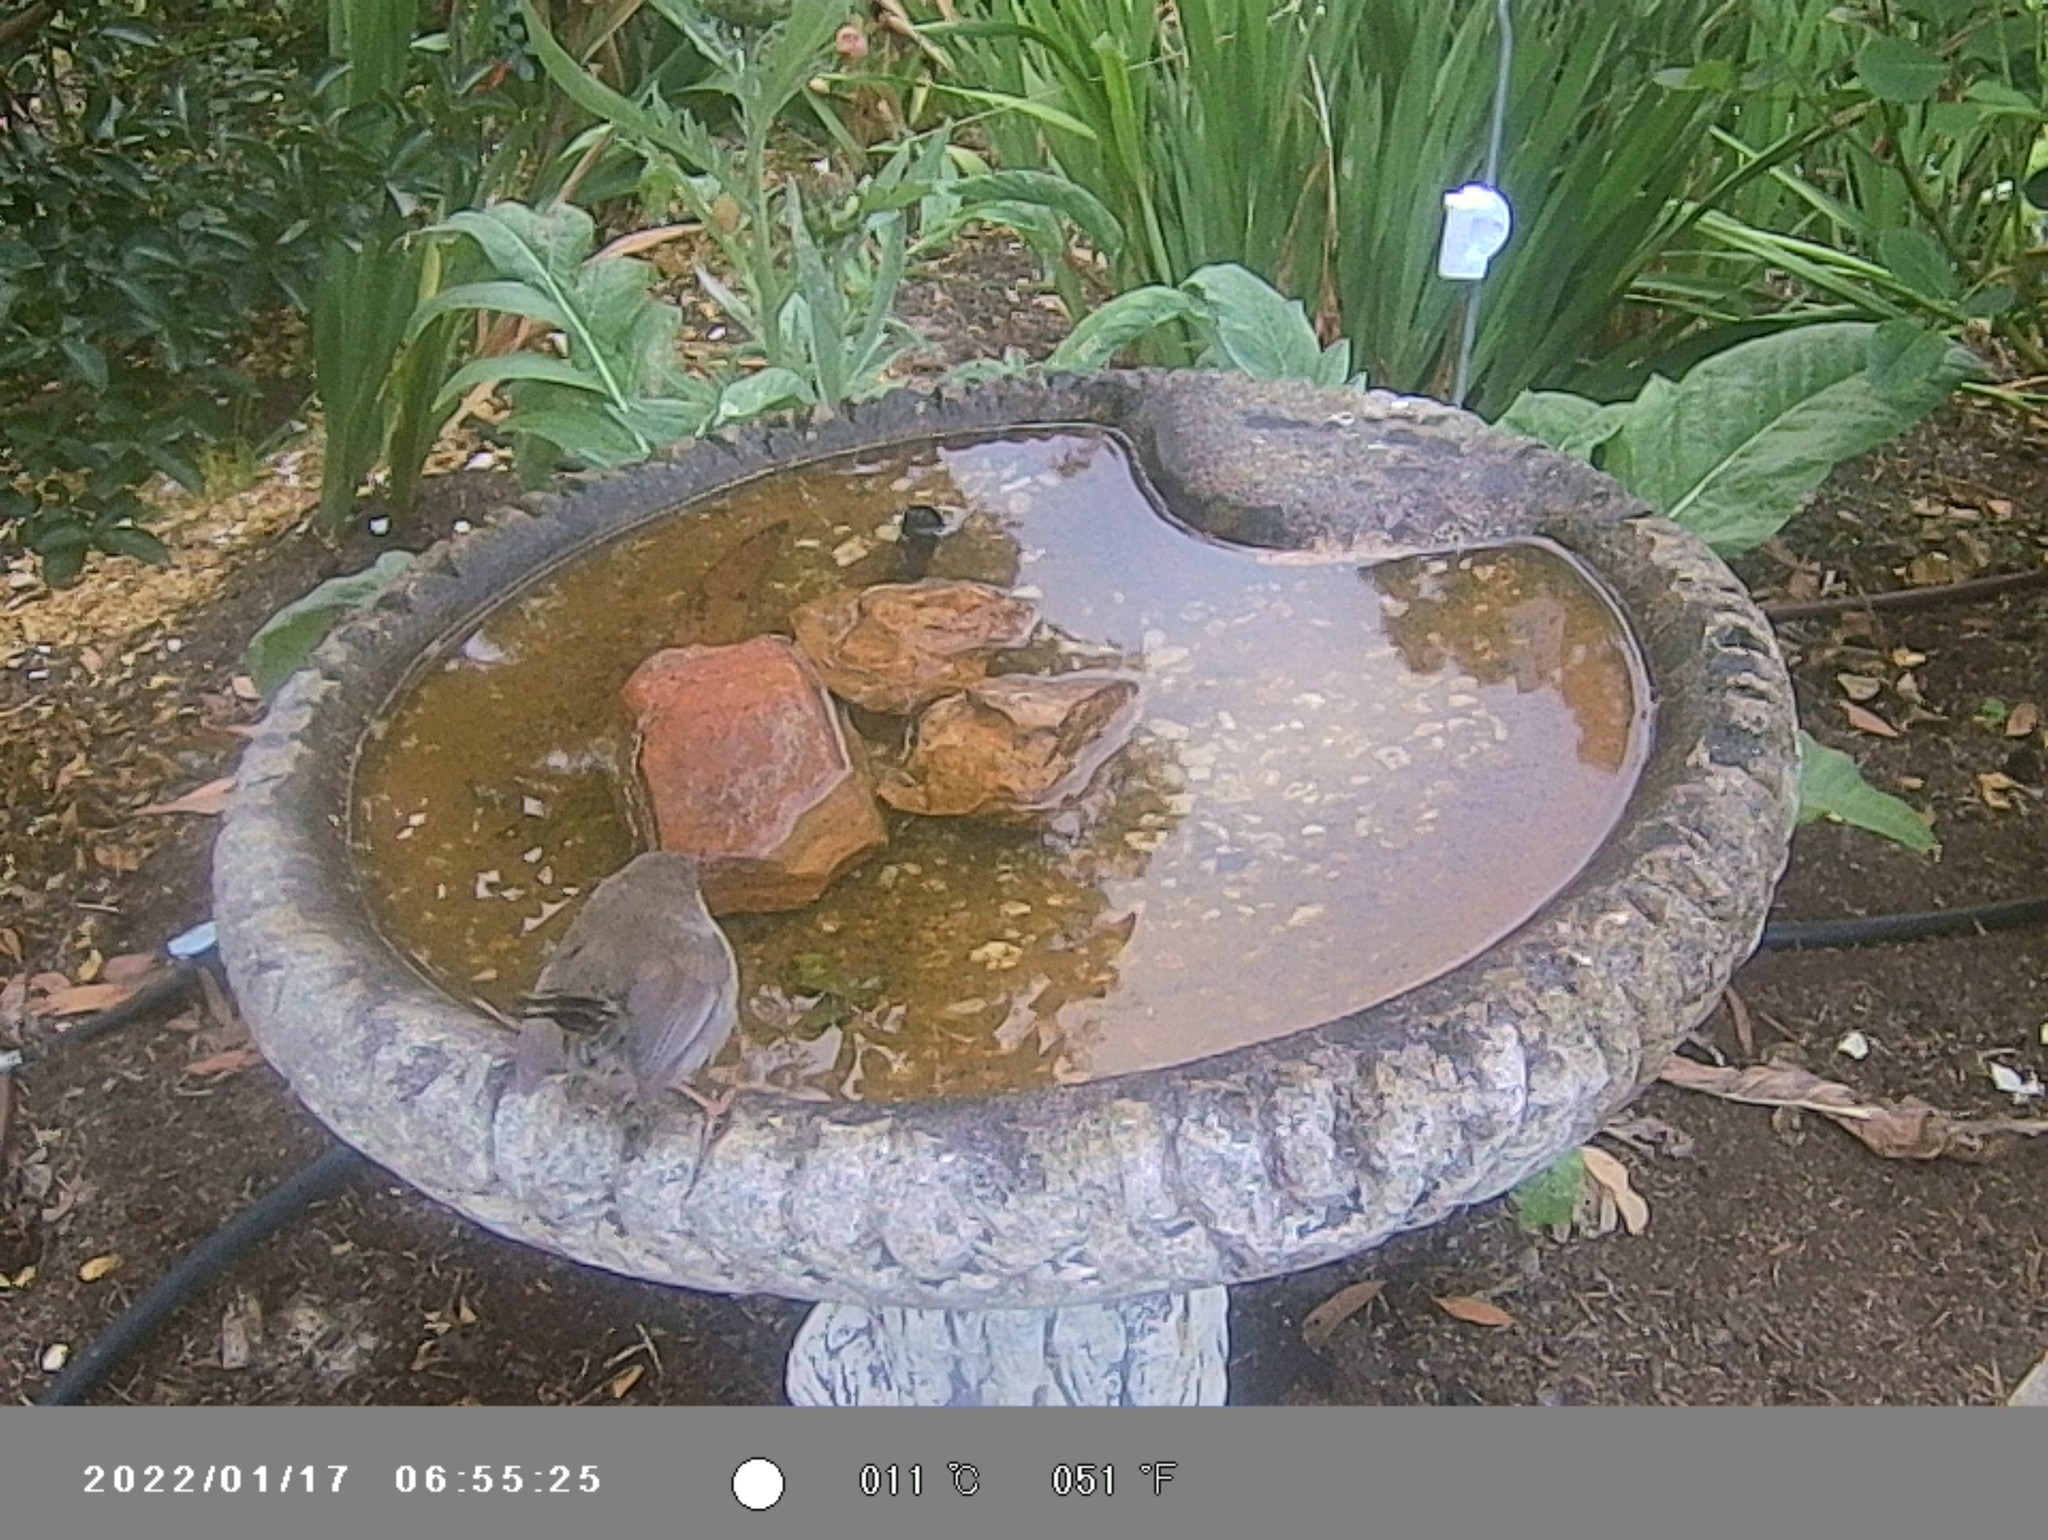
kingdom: Animalia
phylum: Chordata
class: Aves
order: Passeriformes
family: Maluridae
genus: Malurus
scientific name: Malurus cyaneus
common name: Superb fairywren
